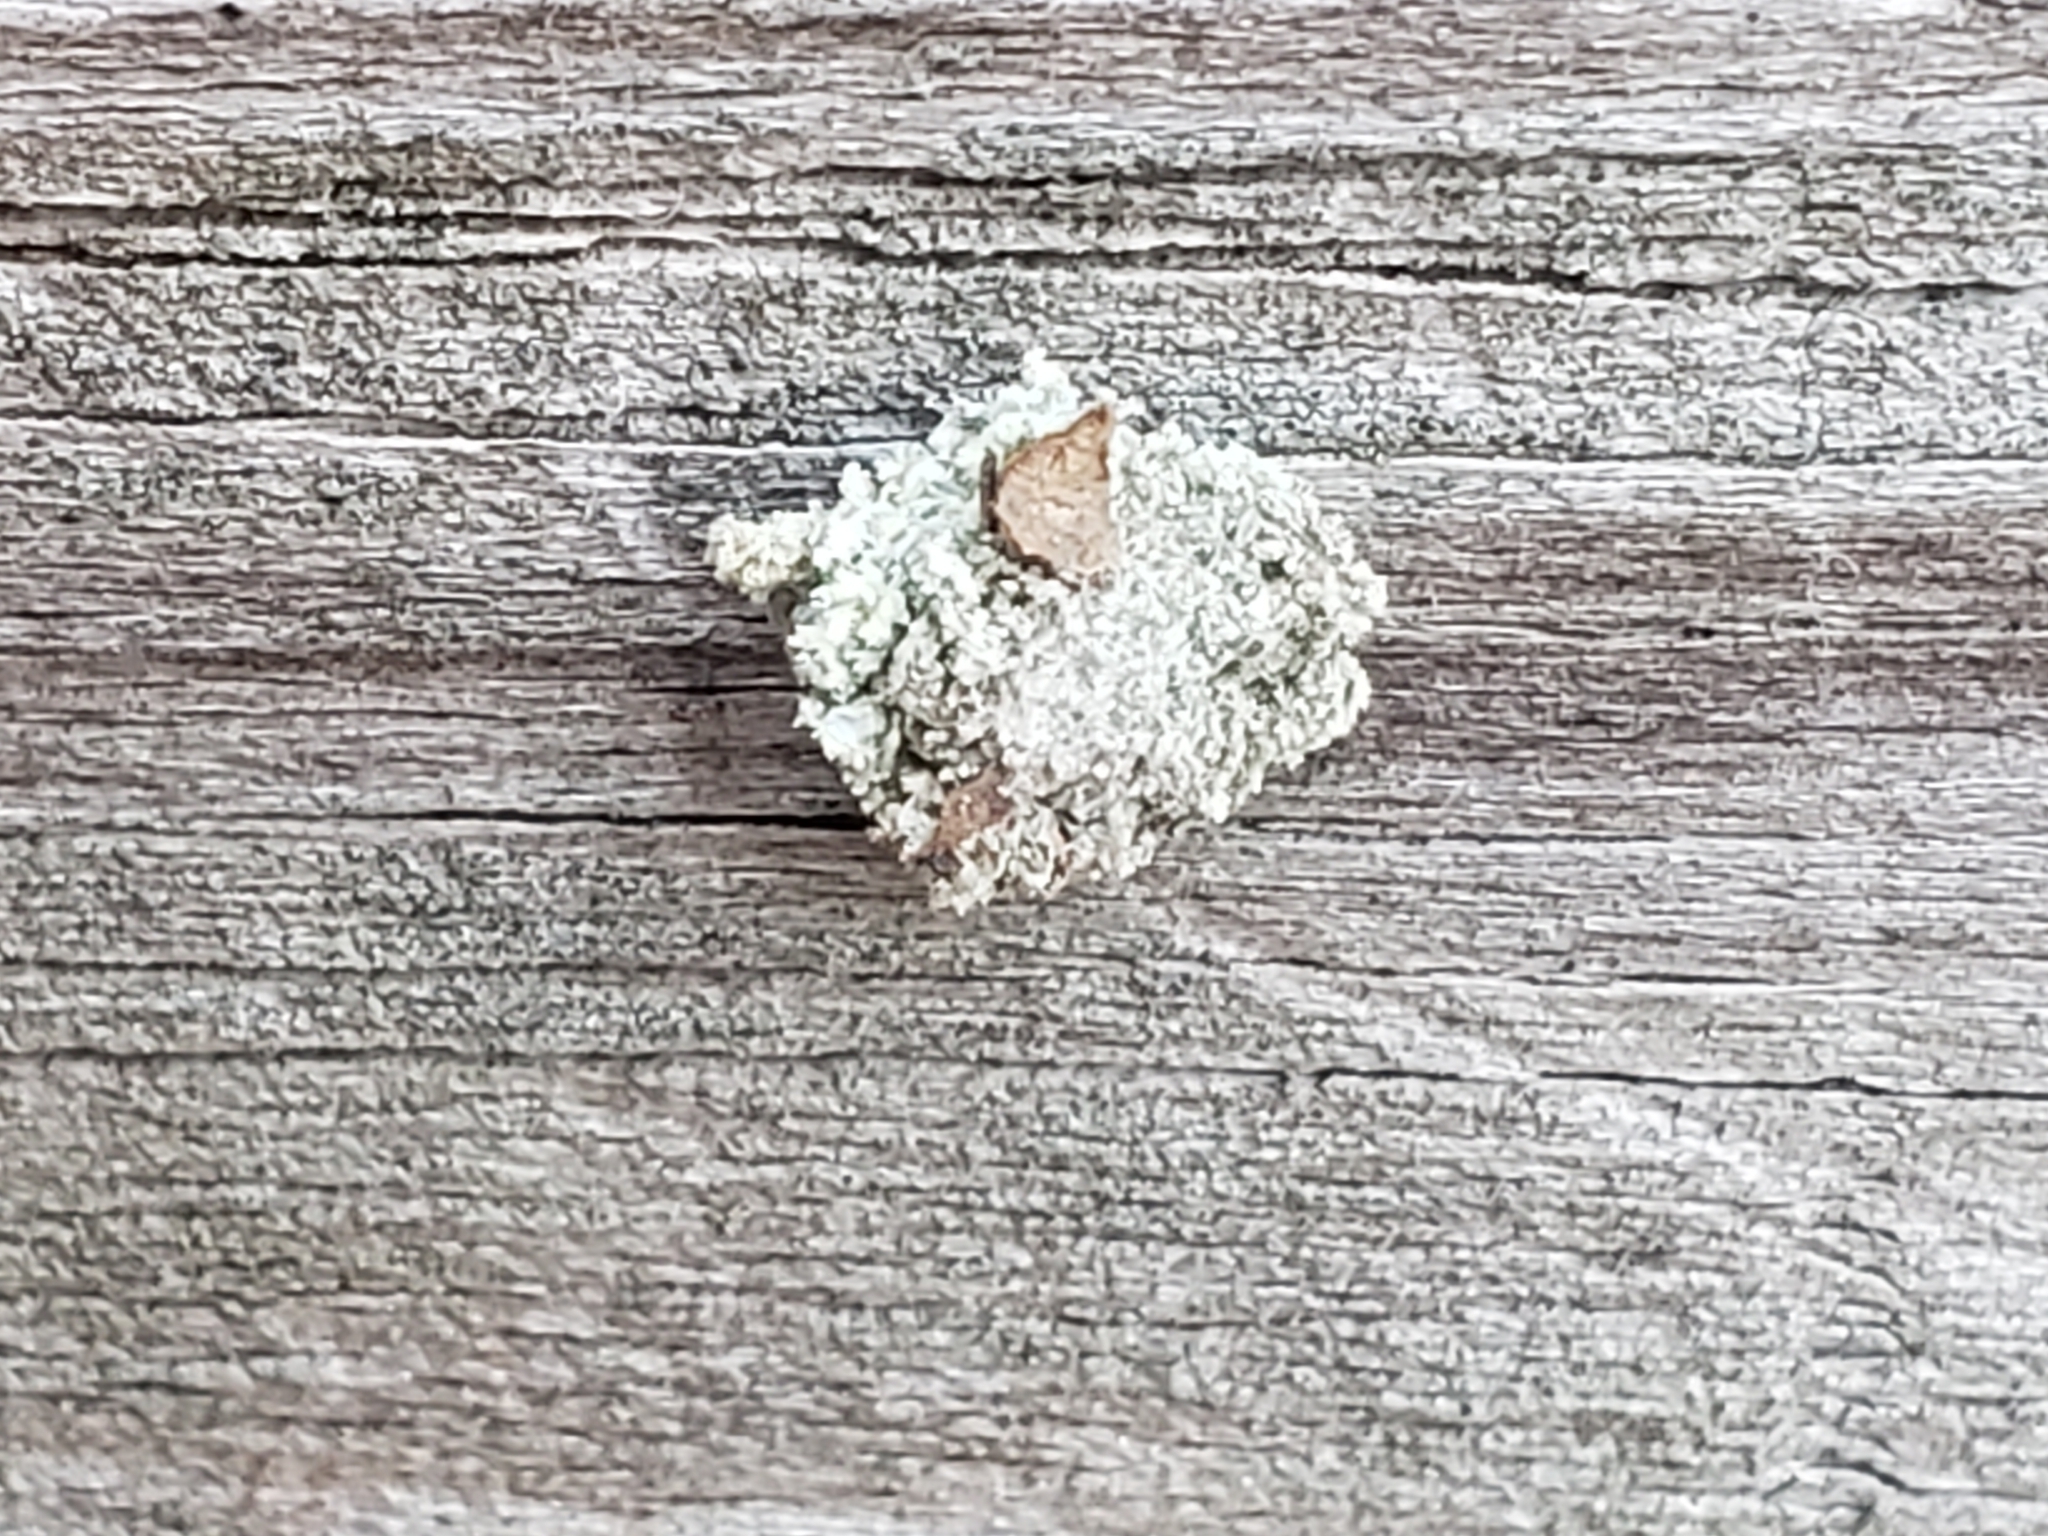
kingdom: Animalia
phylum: Arthropoda
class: Insecta
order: Neuroptera
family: Chrysopidae
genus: Leucochrysa
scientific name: Leucochrysa pavida
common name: Lichen-carrying green lacewing
